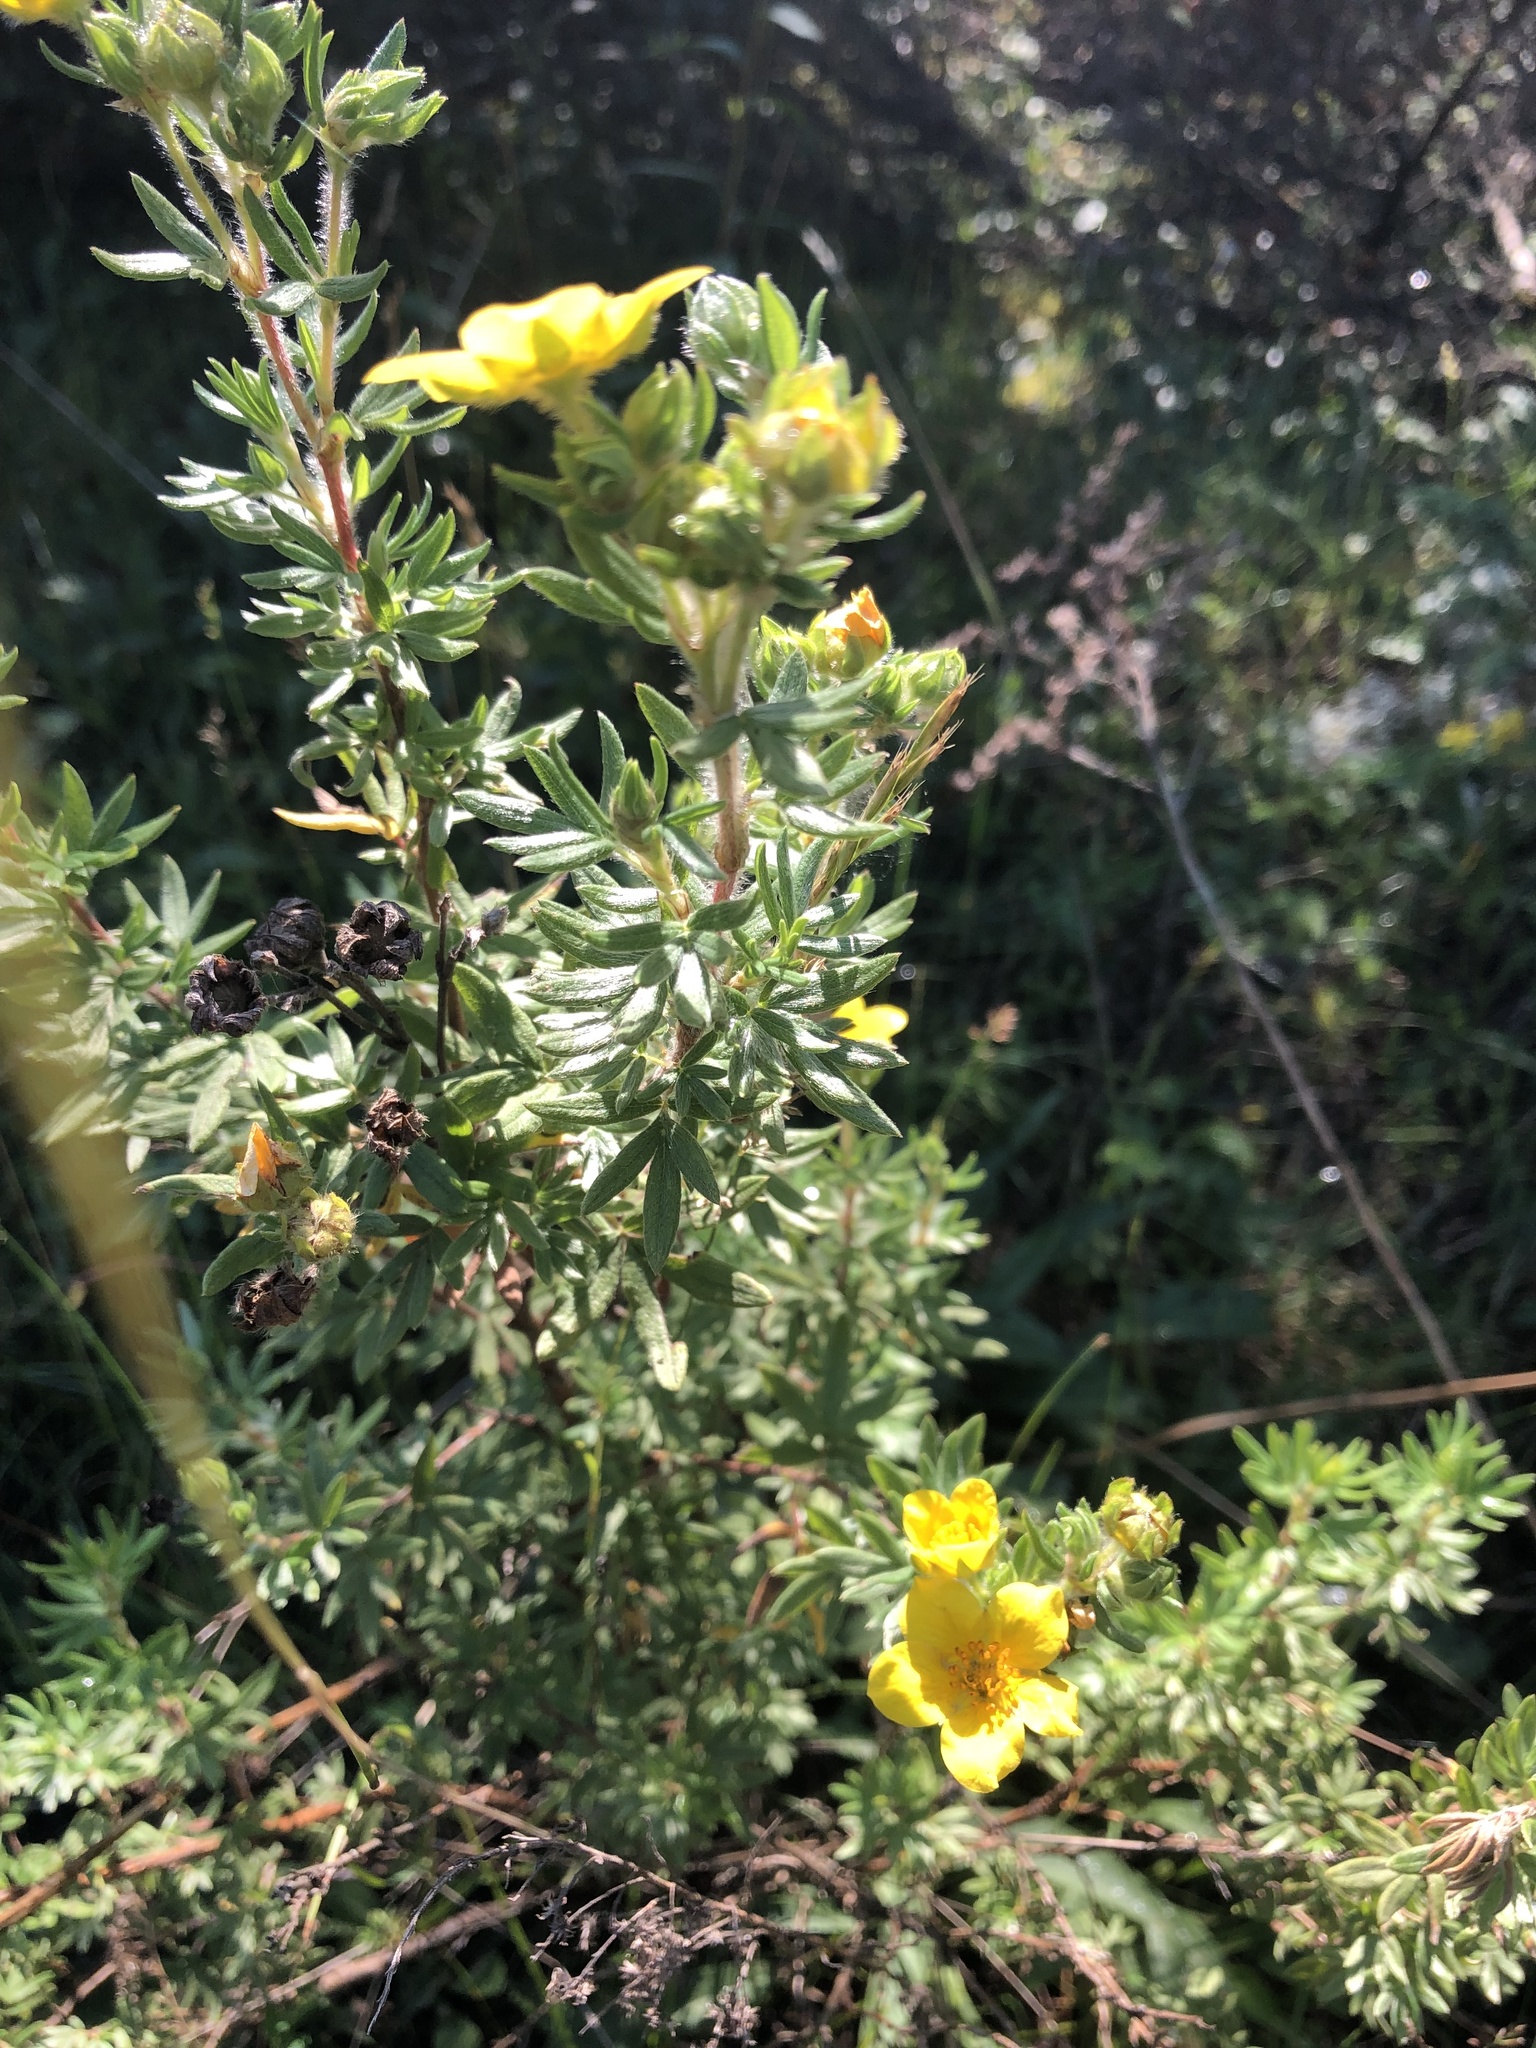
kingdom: Plantae
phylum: Tracheophyta
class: Magnoliopsida
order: Rosales
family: Rosaceae
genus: Dasiphora
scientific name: Dasiphora fruticosa
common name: Shrubby cinquefoil
